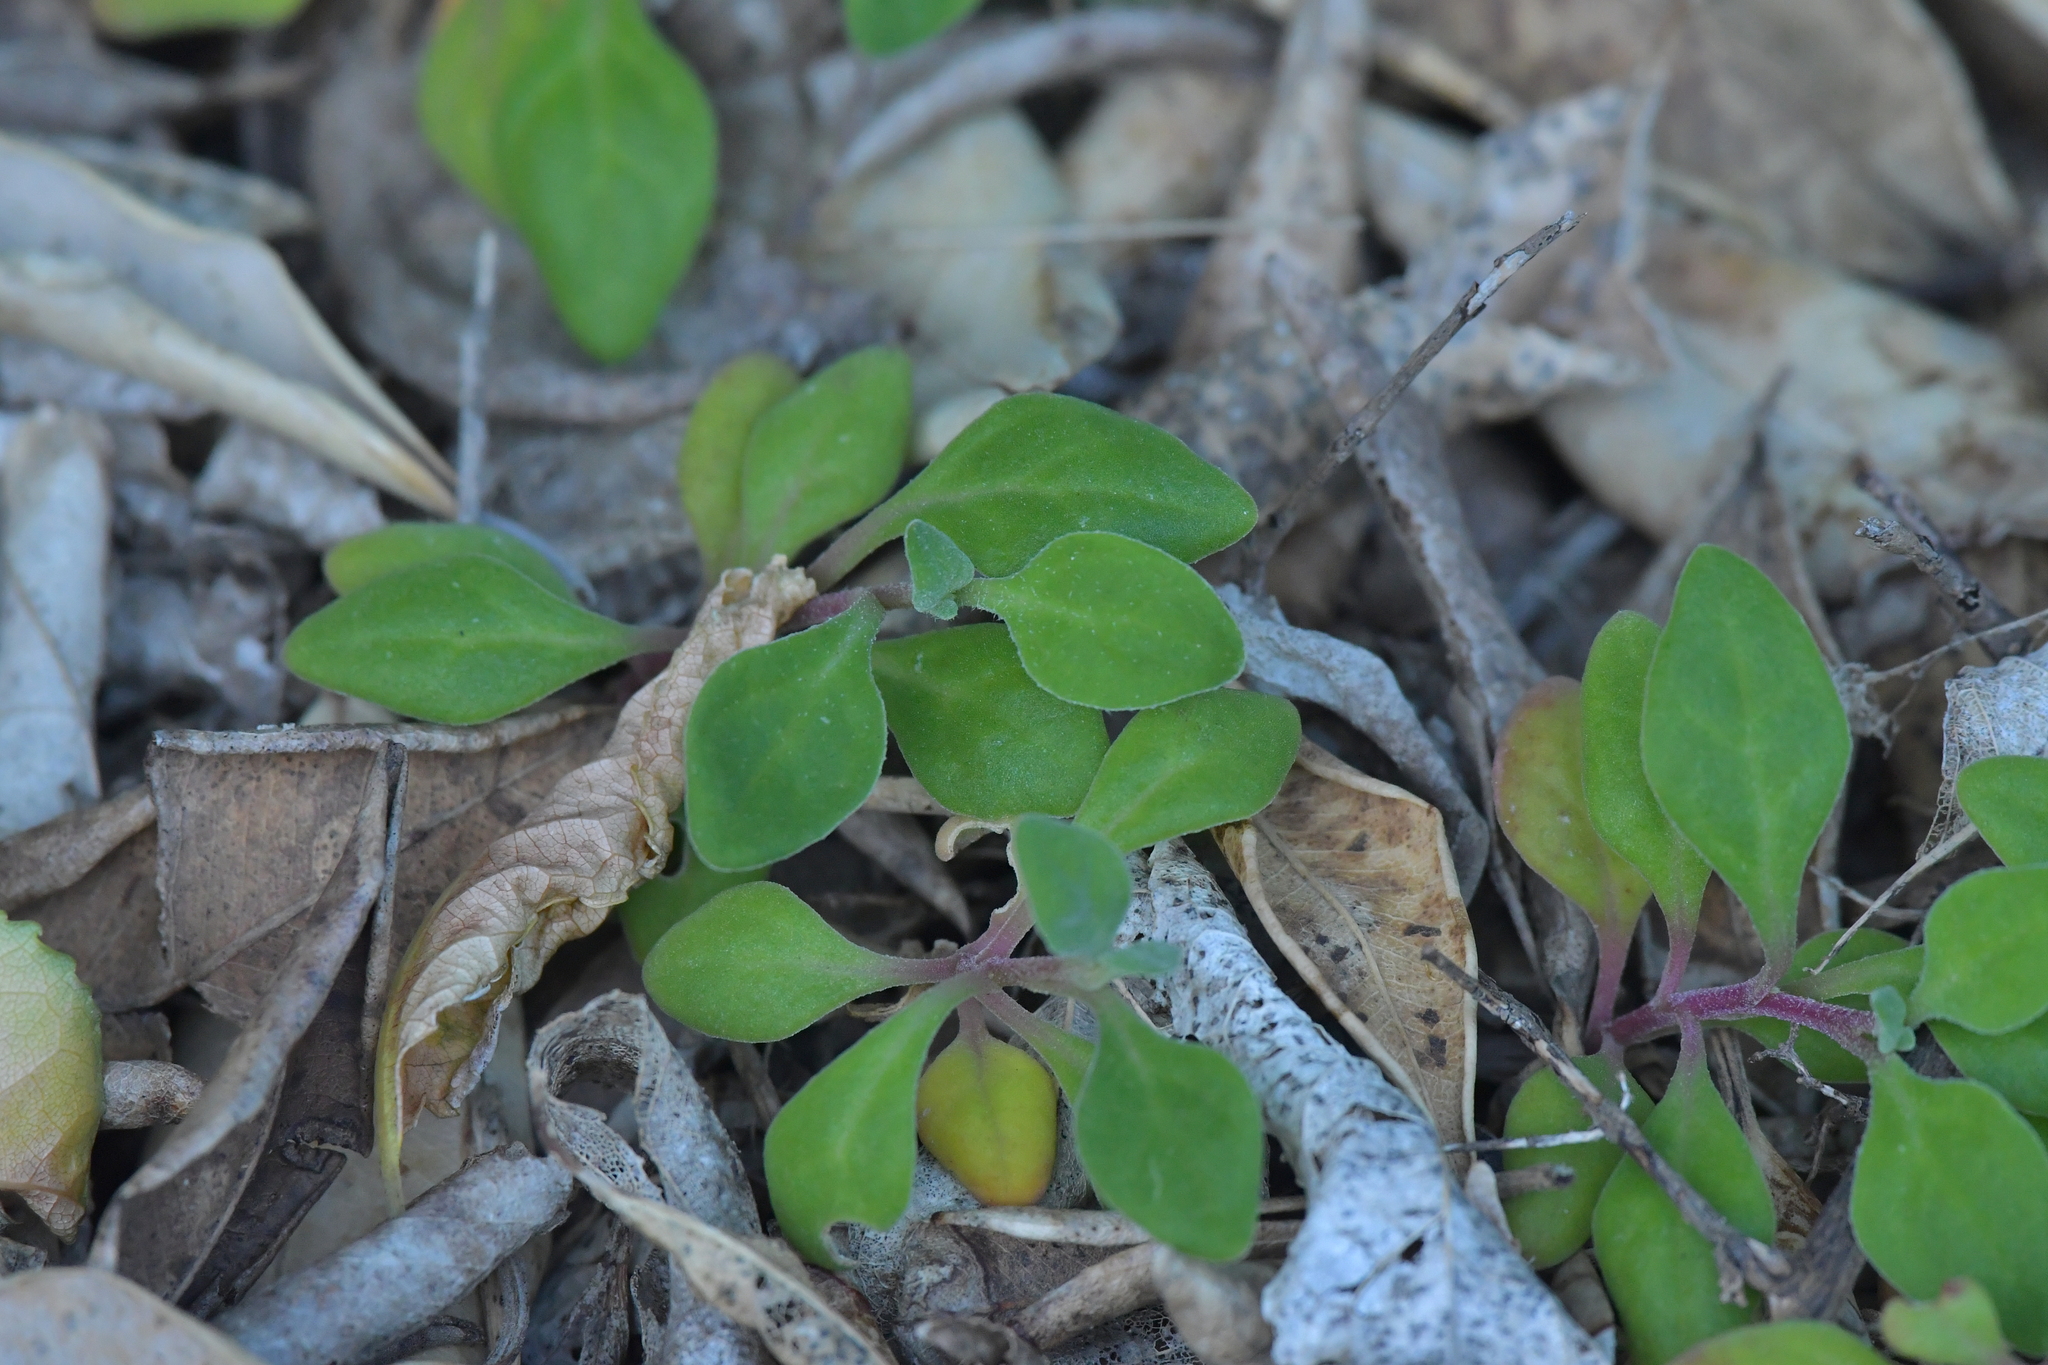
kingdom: Plantae
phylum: Tracheophyta
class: Magnoliopsida
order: Caryophyllales
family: Aizoaceae
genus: Tetragonia
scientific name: Tetragonia implexicoma
